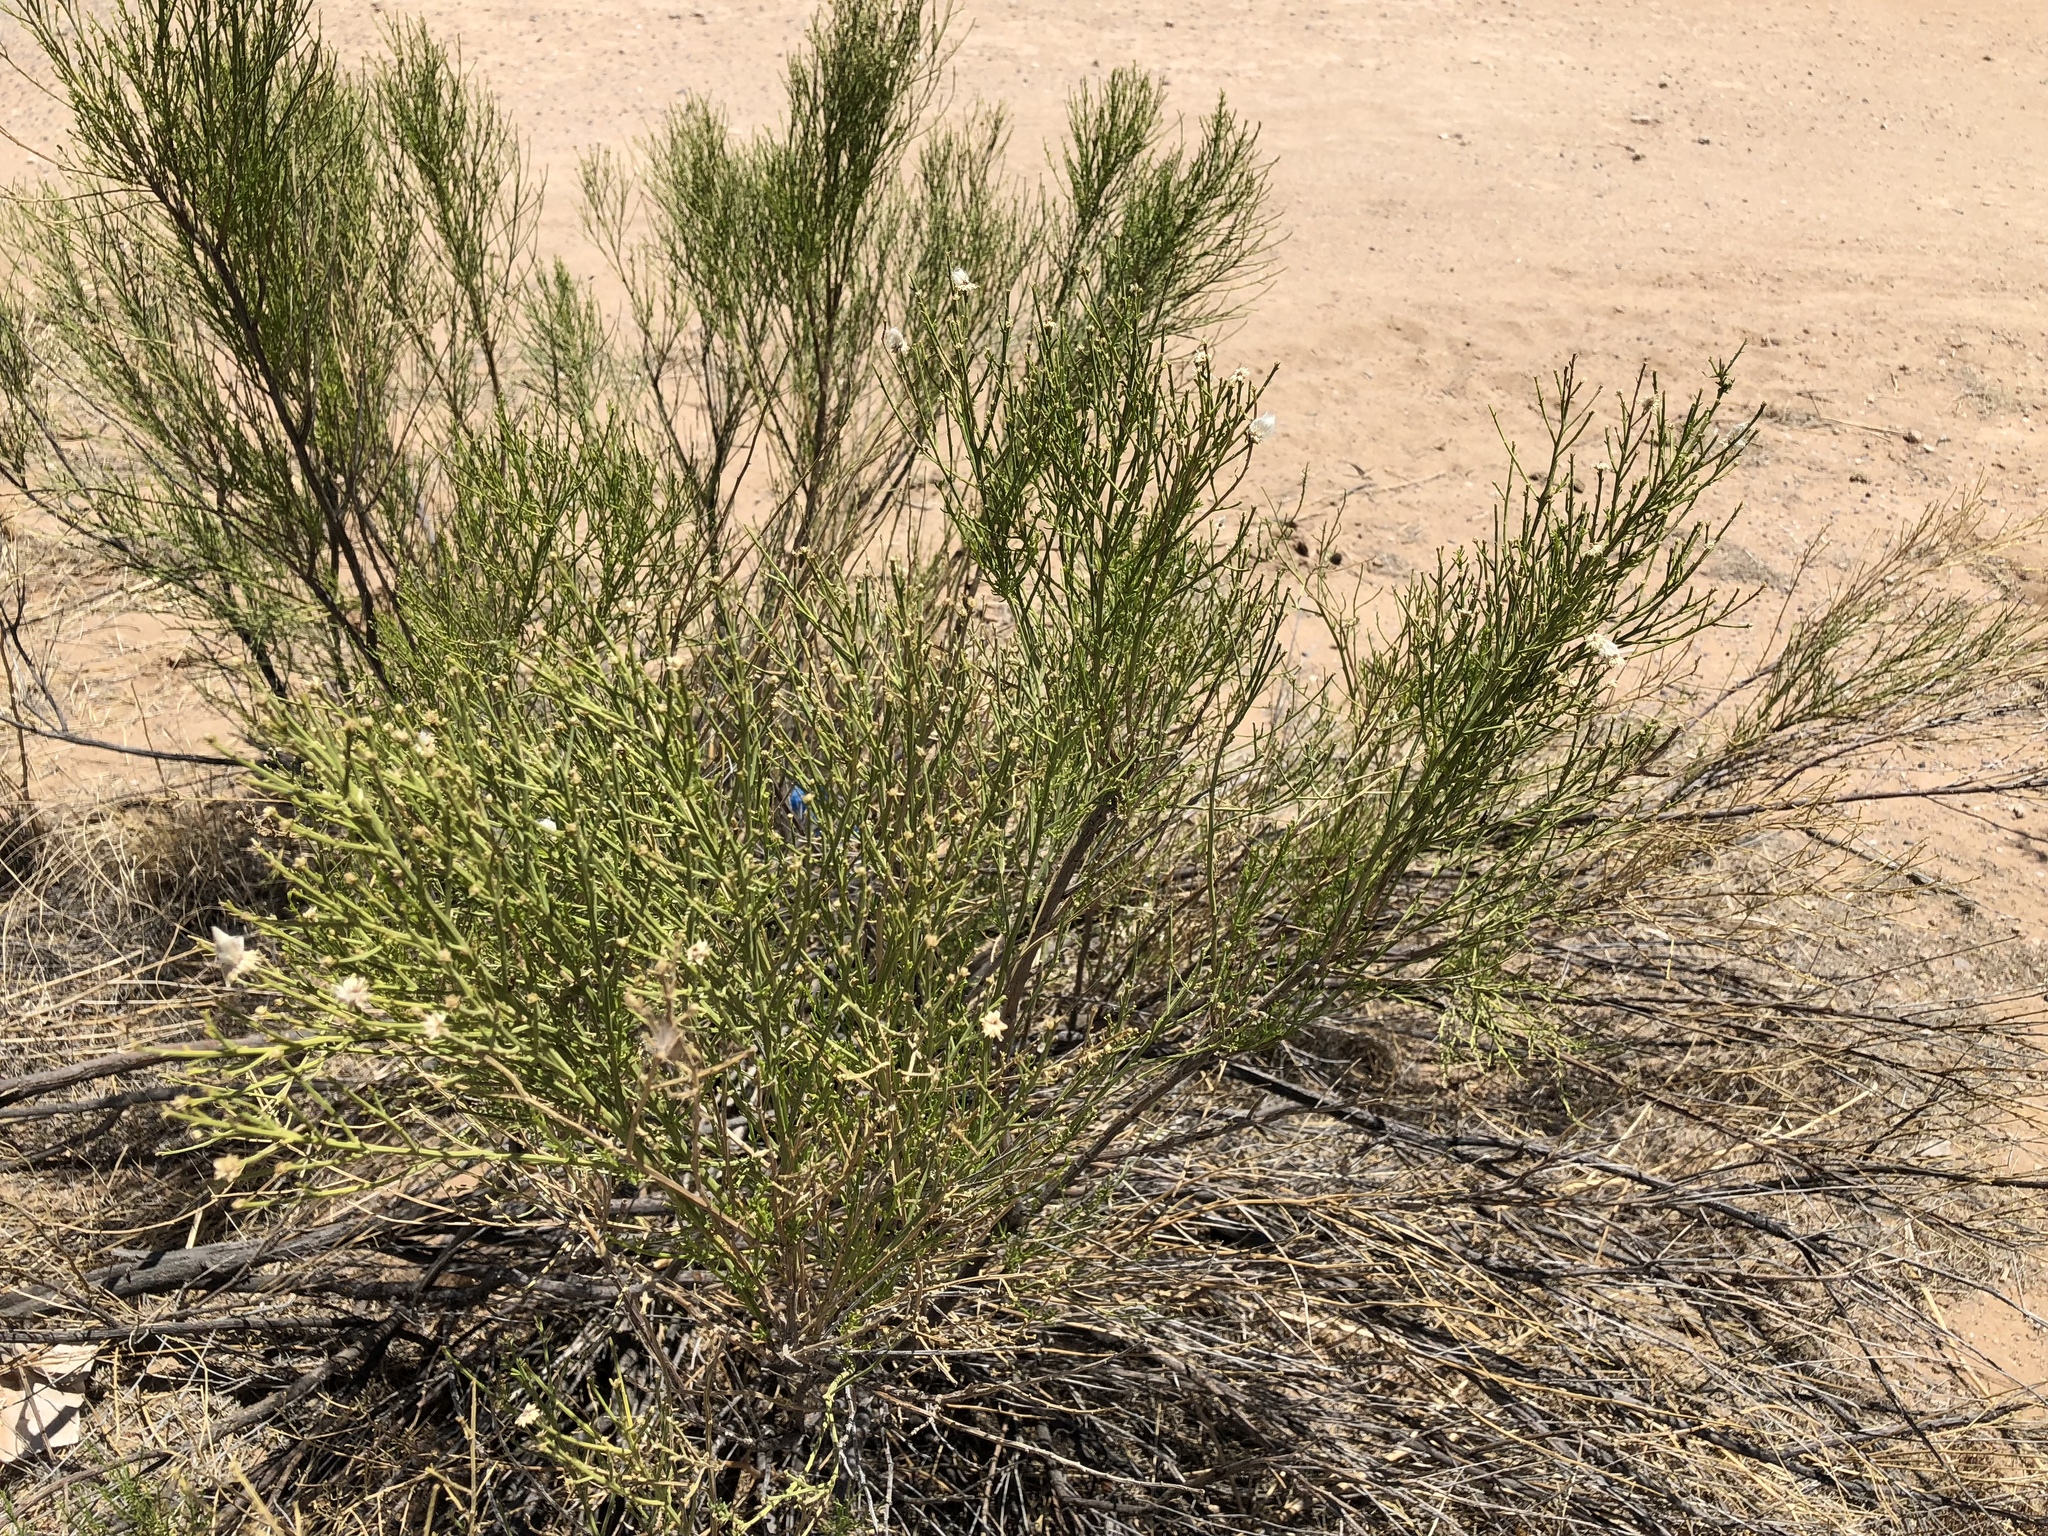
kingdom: Plantae
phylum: Tracheophyta
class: Magnoliopsida
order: Asterales
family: Asteraceae
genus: Baccharis
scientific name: Baccharis sarothroides
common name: Desert-broom
